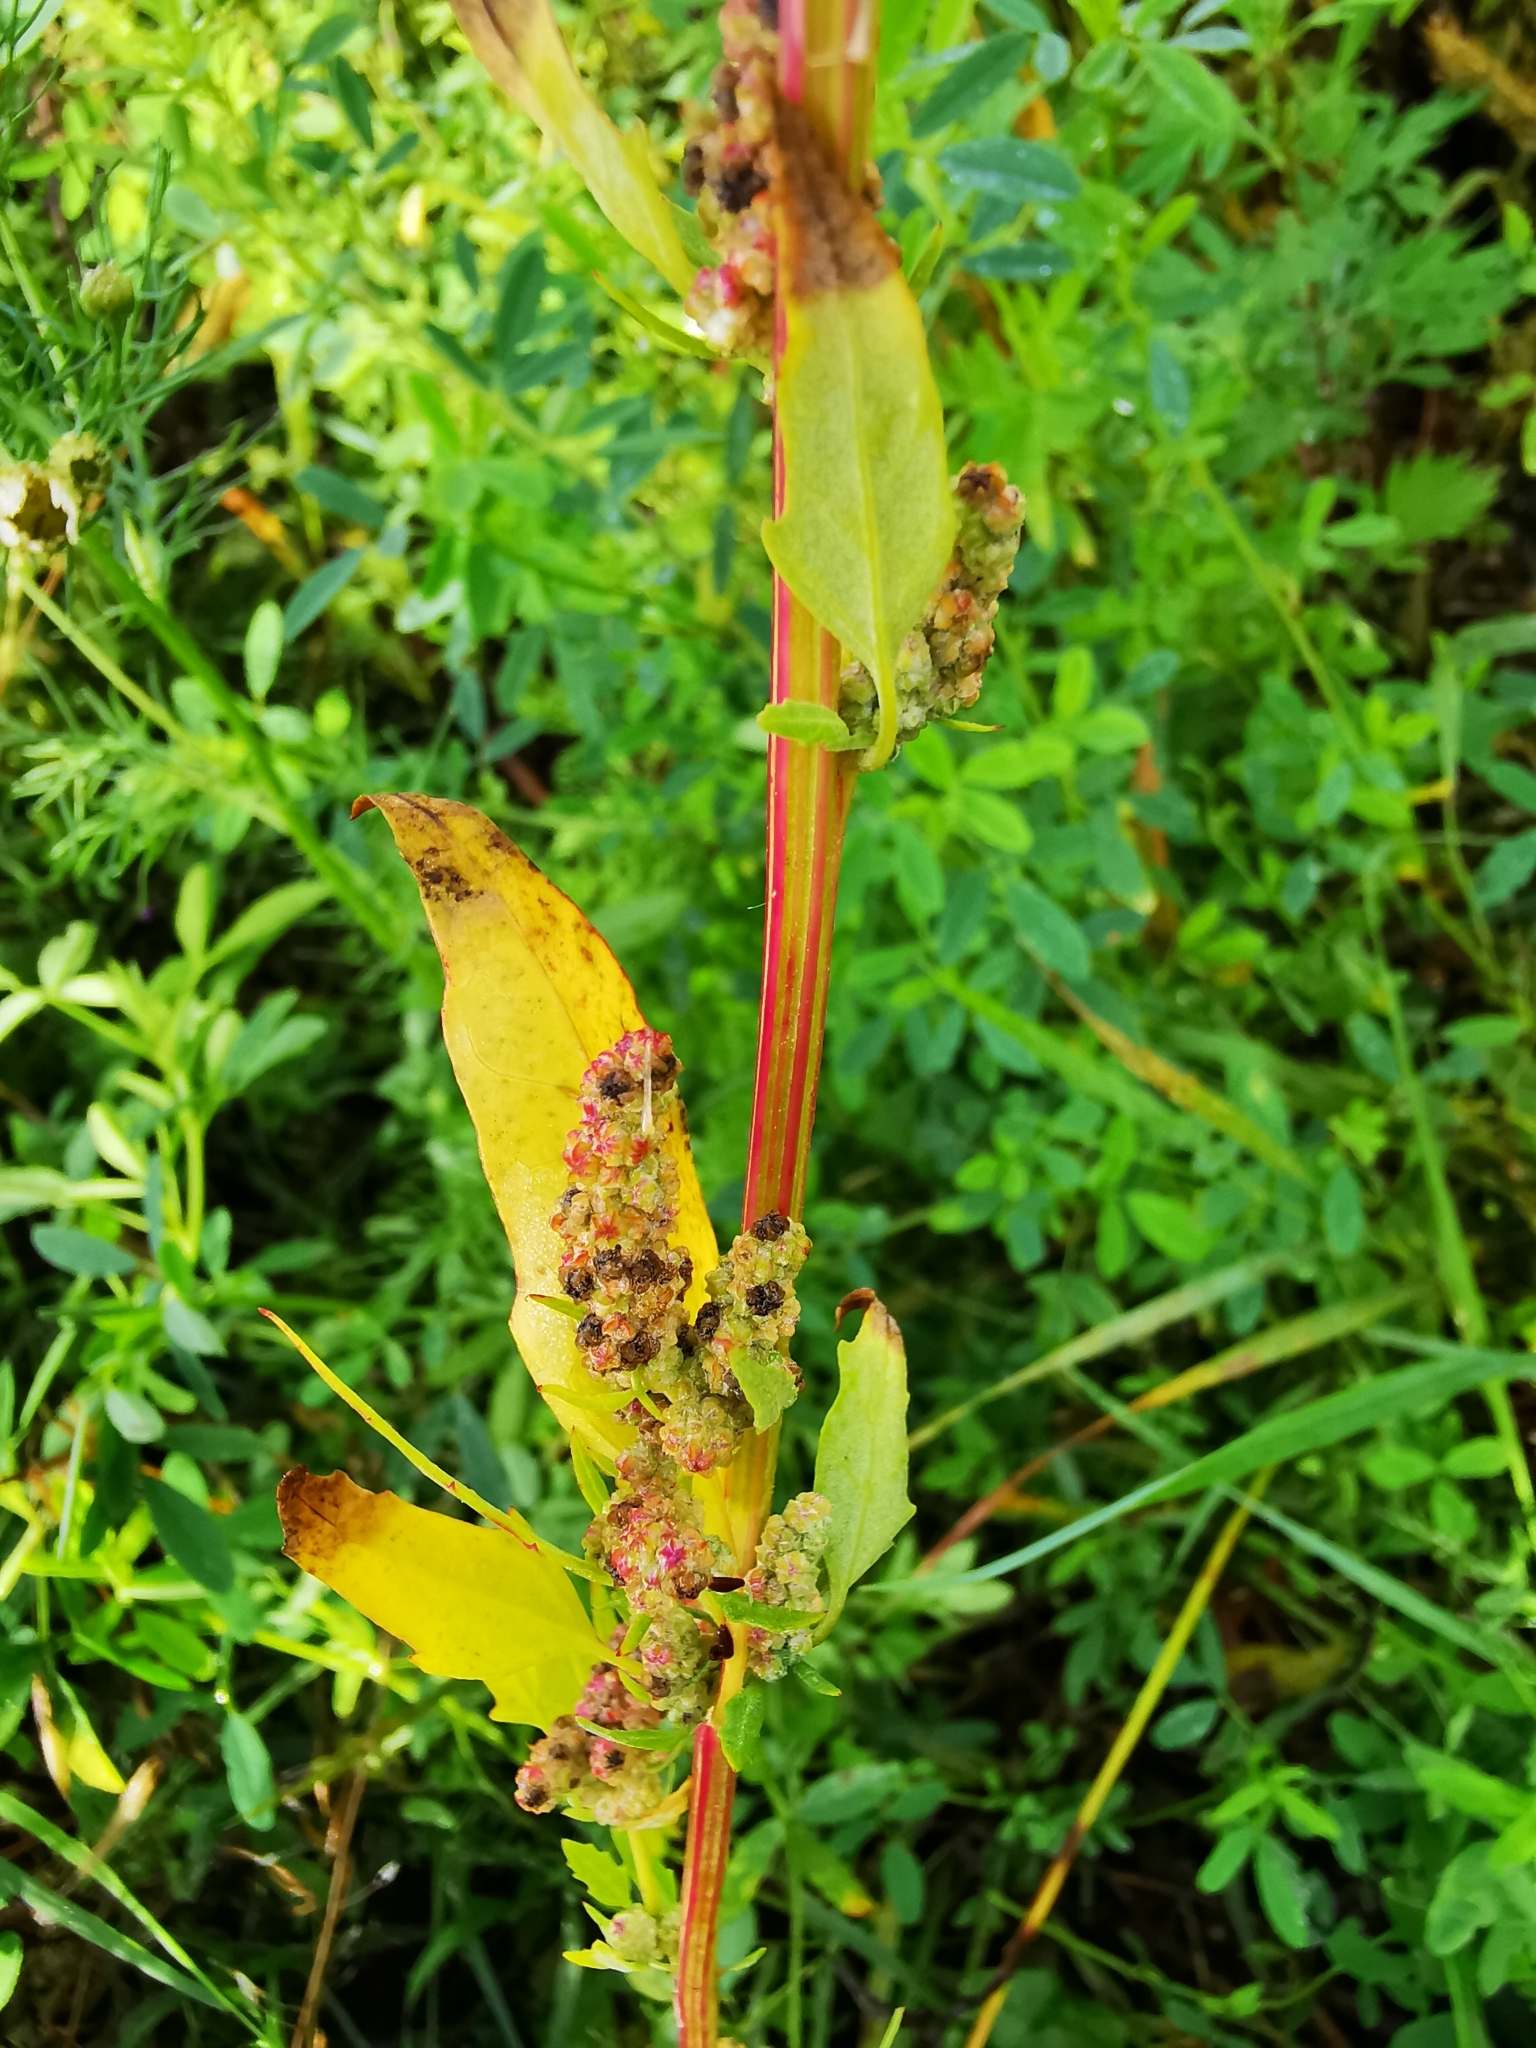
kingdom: Plantae
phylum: Tracheophyta
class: Magnoliopsida
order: Caryophyllales
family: Amaranthaceae
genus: Chenopodium
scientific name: Chenopodium album
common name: Fat-hen
